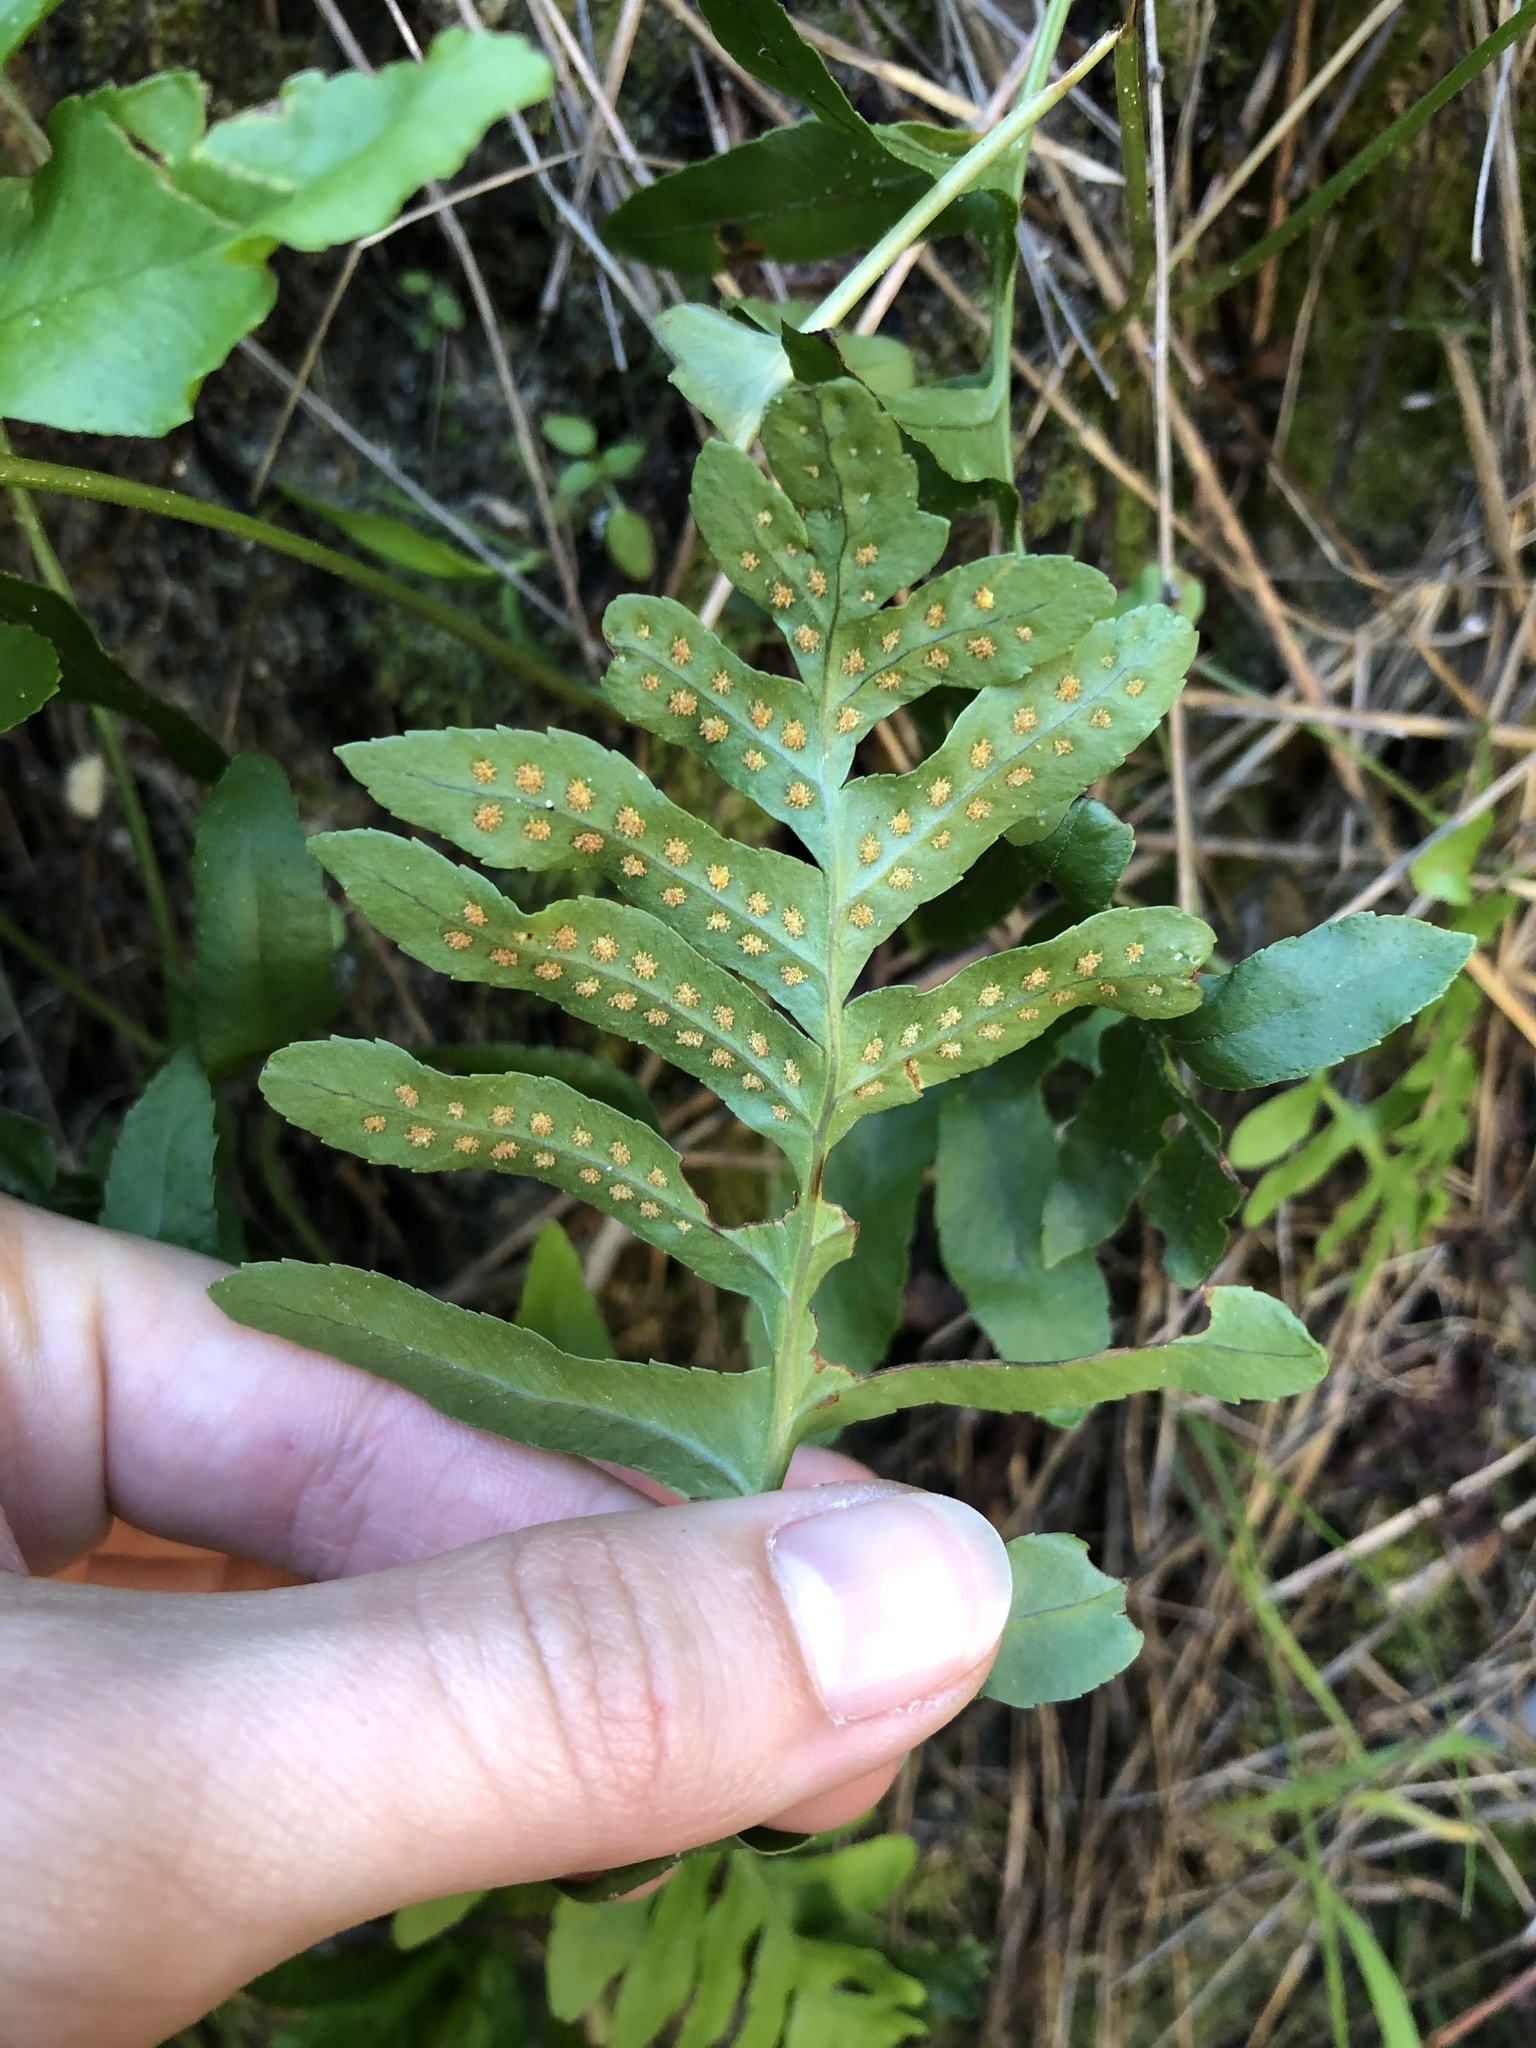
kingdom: Plantae
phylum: Tracheophyta
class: Polypodiopsida
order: Polypodiales
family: Polypodiaceae
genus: Polypodium
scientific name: Polypodium californicum
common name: California polypody
